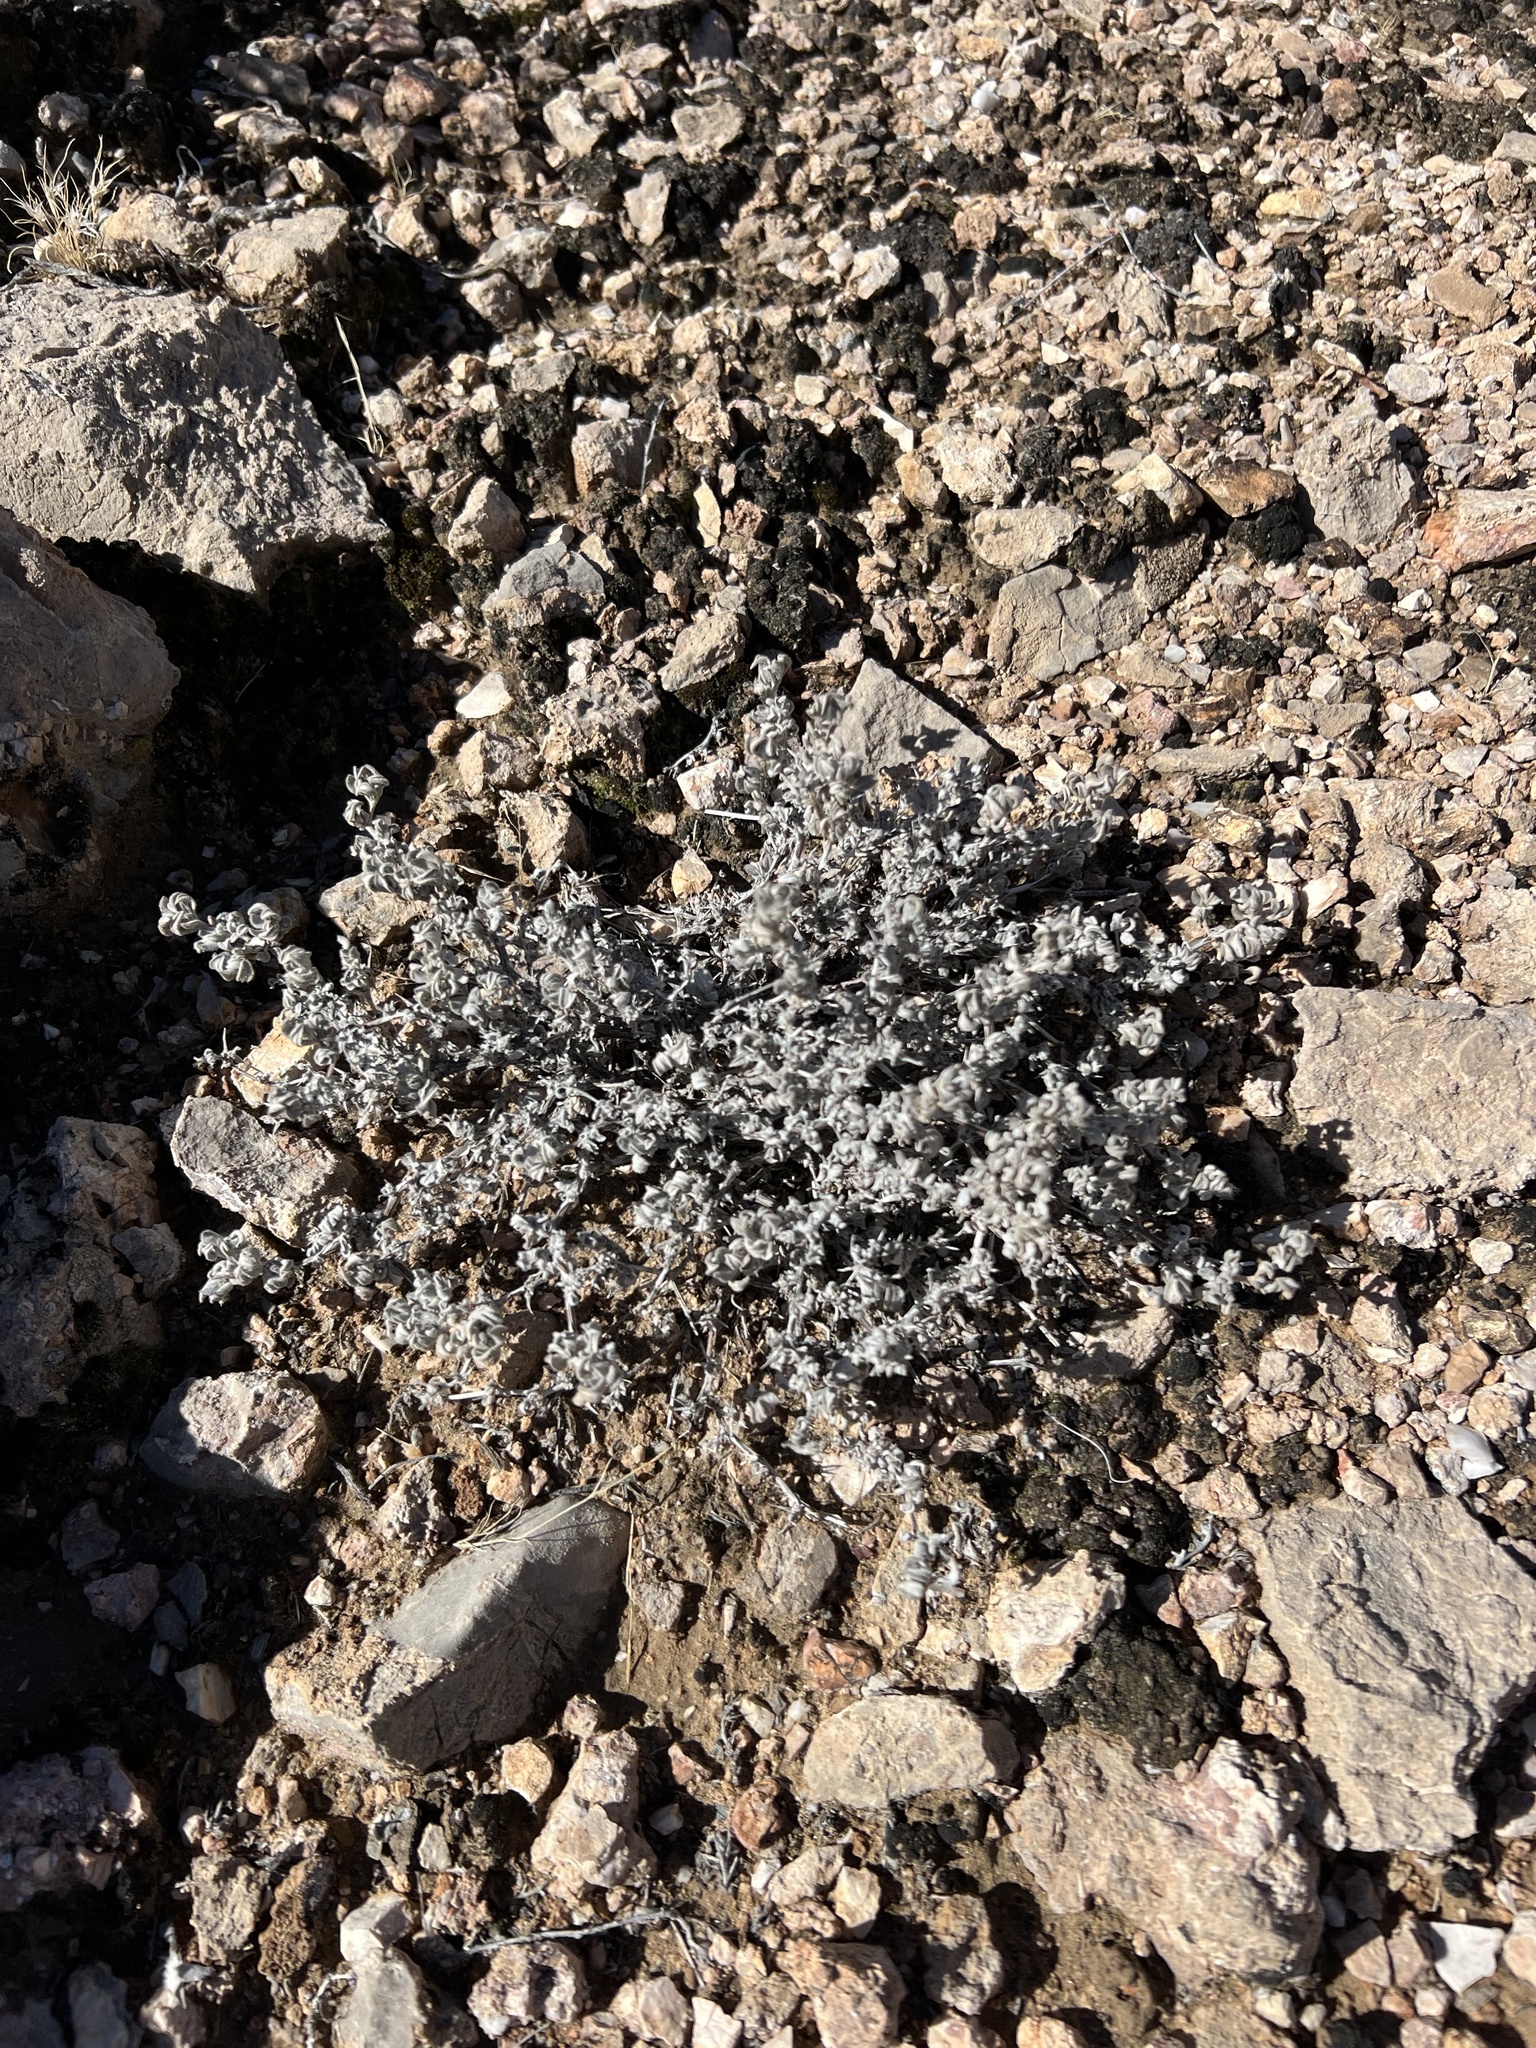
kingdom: Plantae
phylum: Tracheophyta
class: Magnoliopsida
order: Boraginales
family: Ehretiaceae
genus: Tiquilia
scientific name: Tiquilia canescens
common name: Hairy tiquilia
